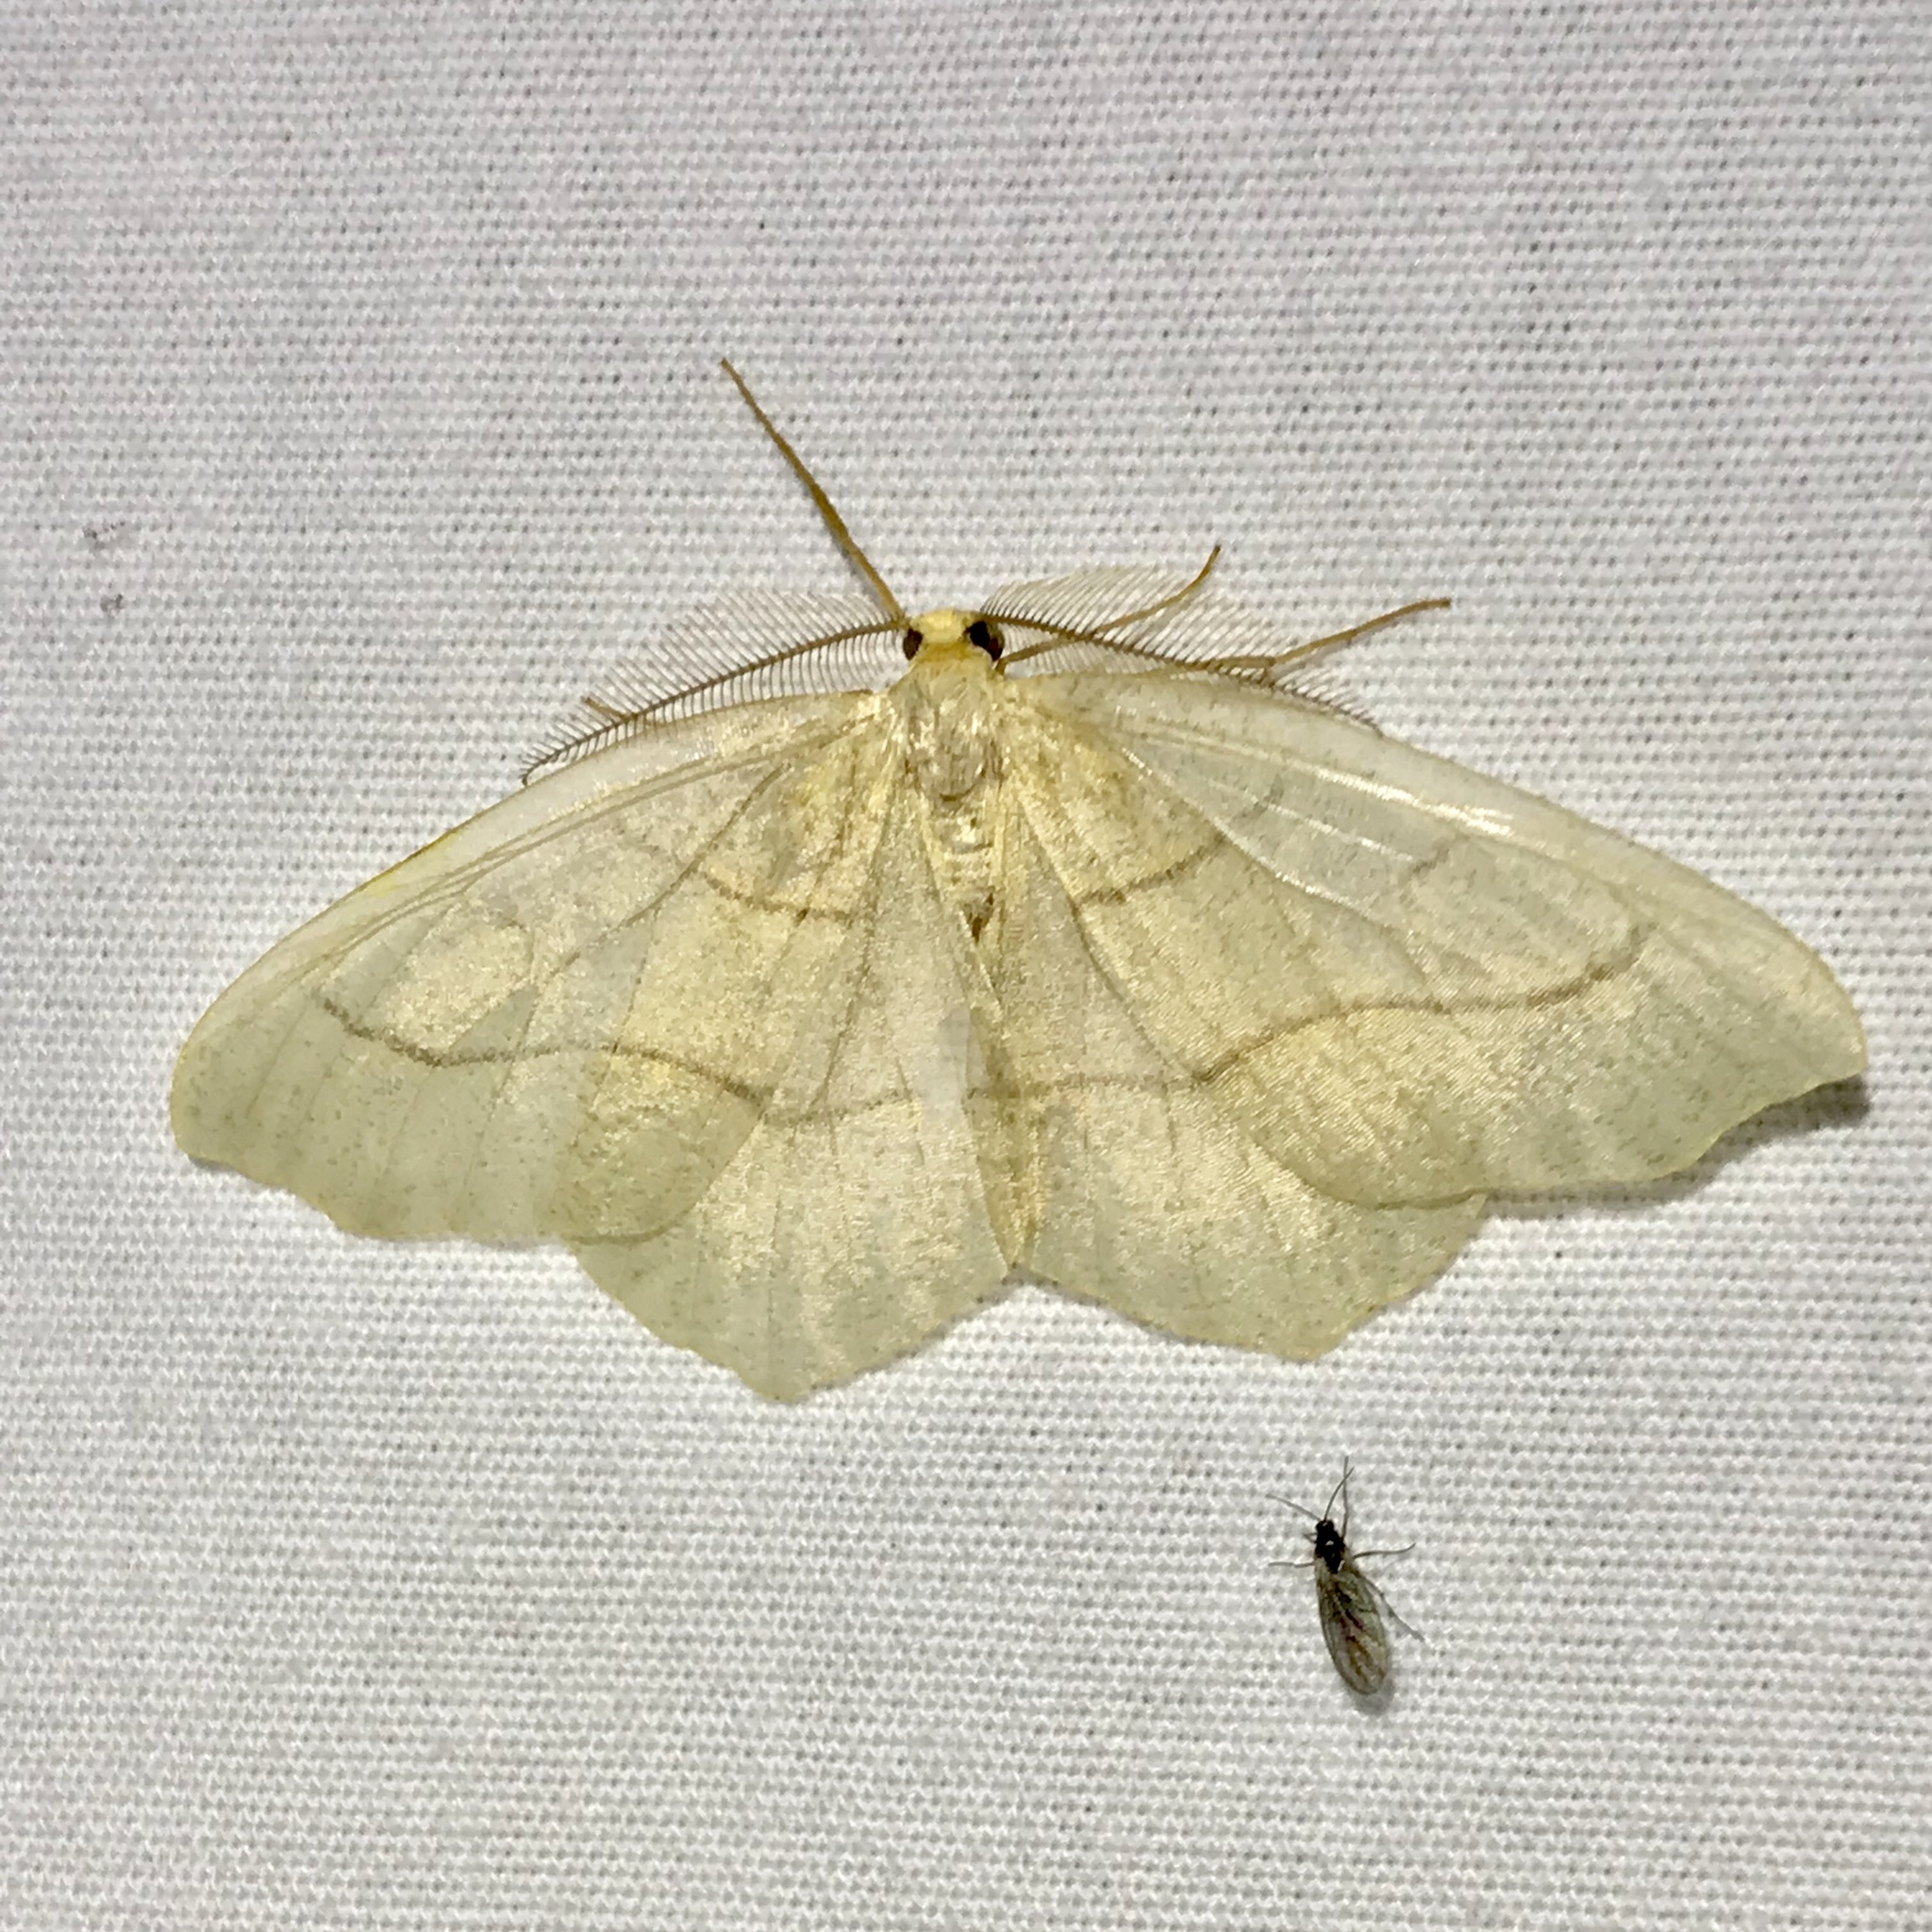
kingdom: Animalia
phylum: Arthropoda
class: Insecta
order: Lepidoptera
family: Geometridae
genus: Lambdina
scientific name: Lambdina fiscellaria
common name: Hemlock looper
